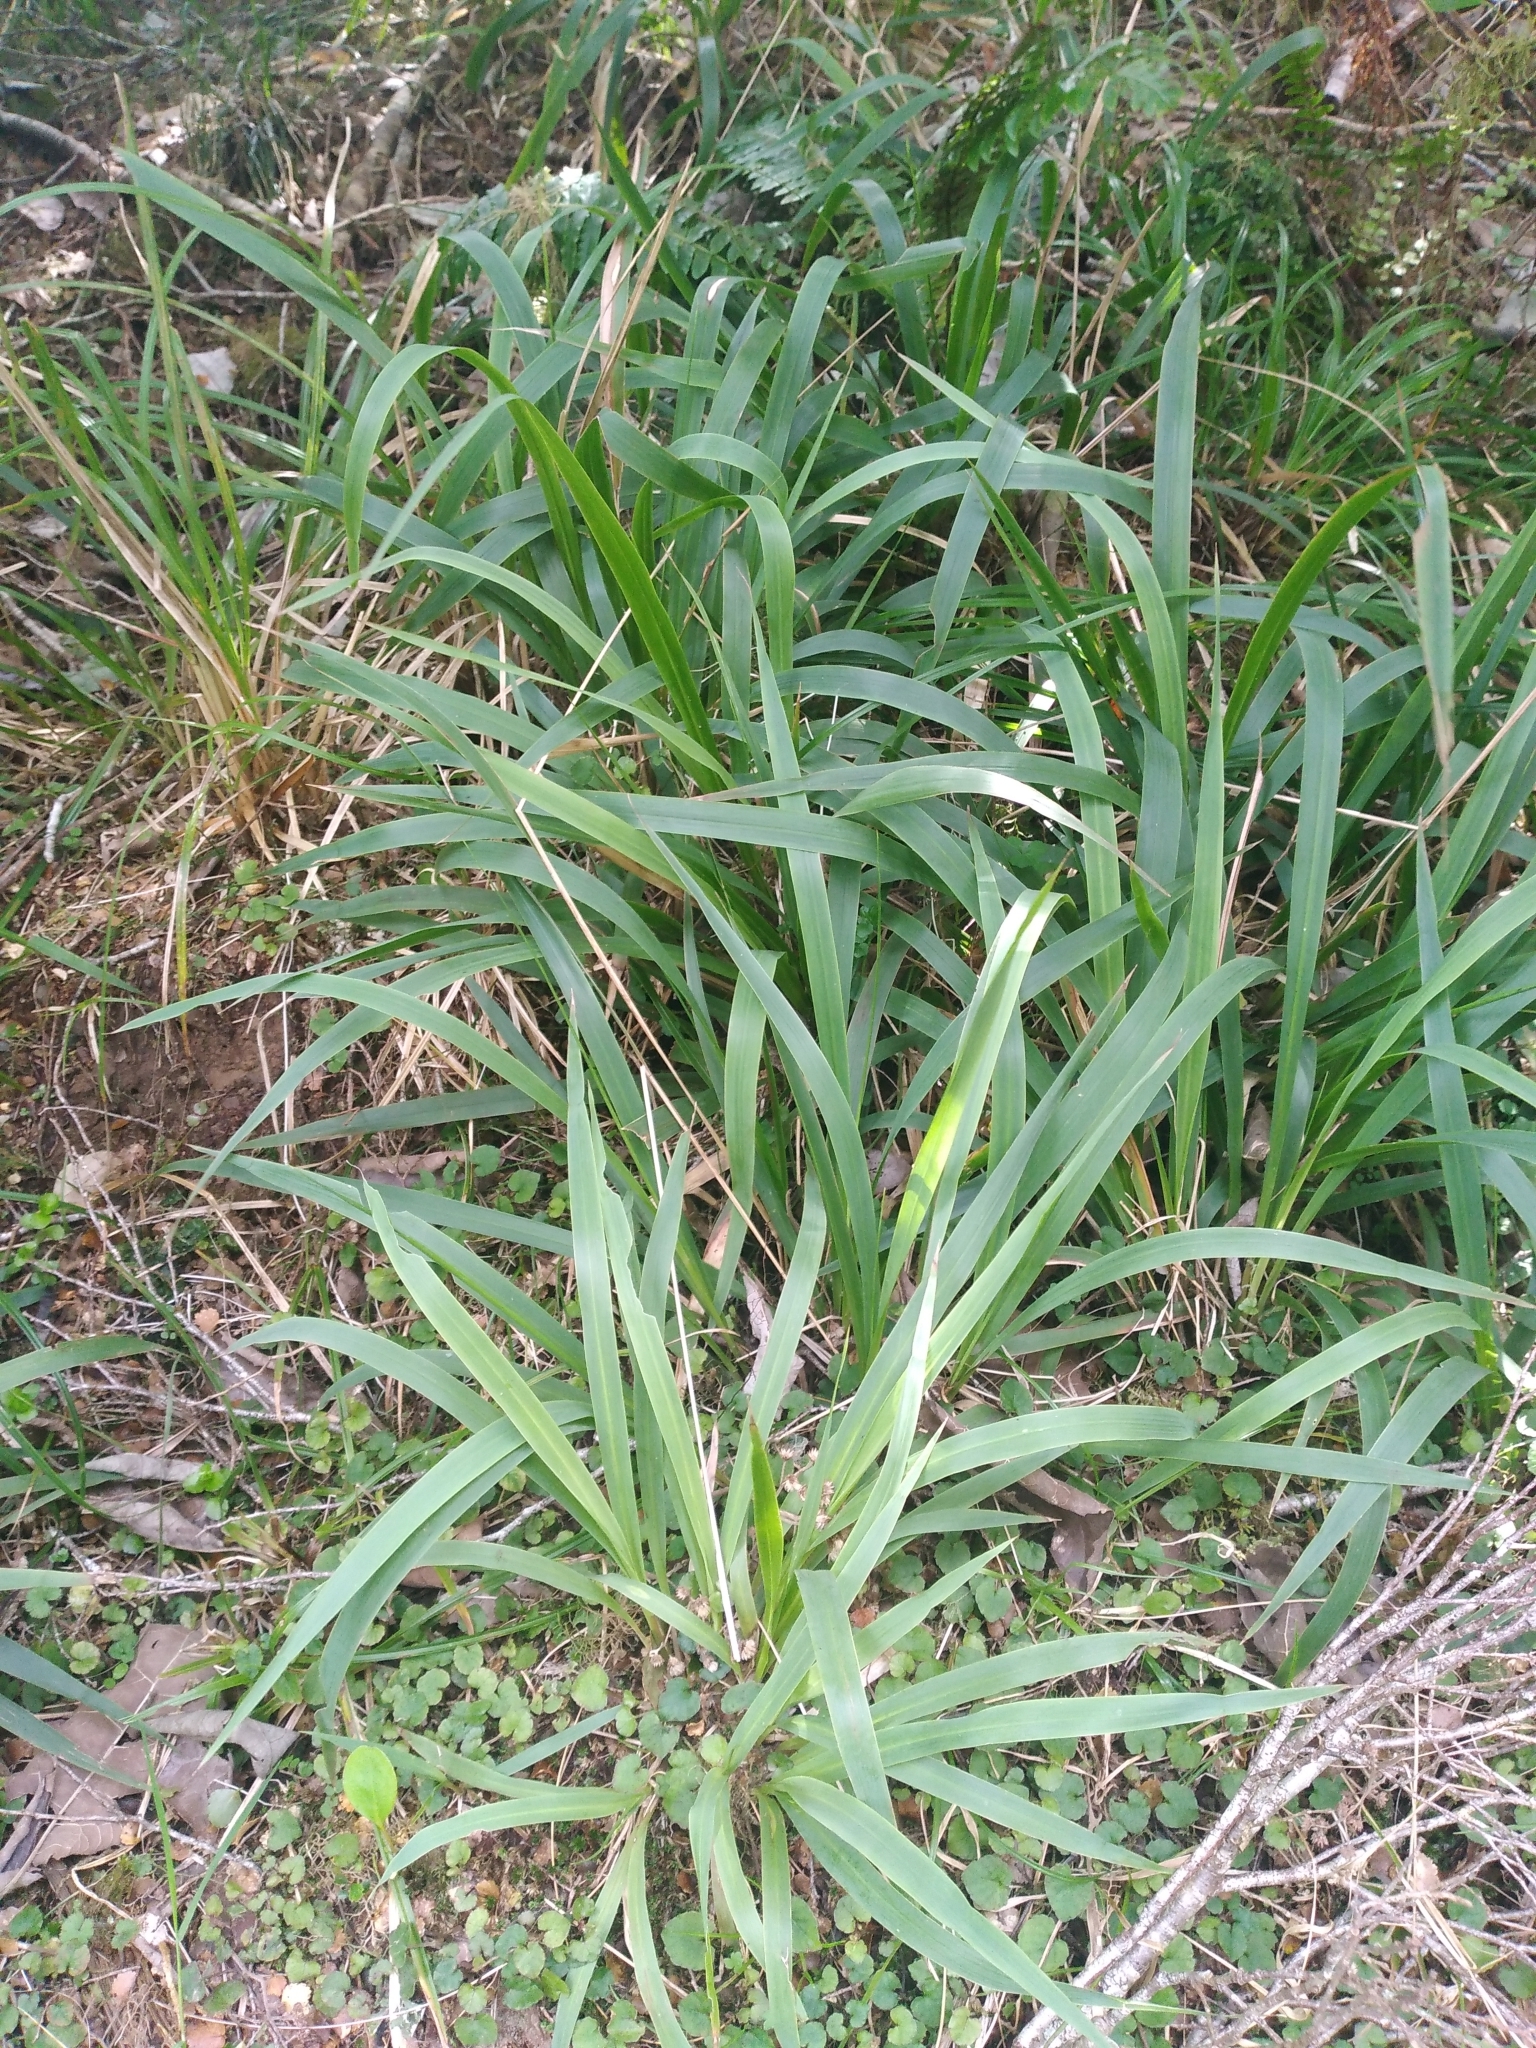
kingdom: Plantae
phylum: Tracheophyta
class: Liliopsida
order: Poales
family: Poaceae
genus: Ehrharta
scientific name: Ehrharta diplax
